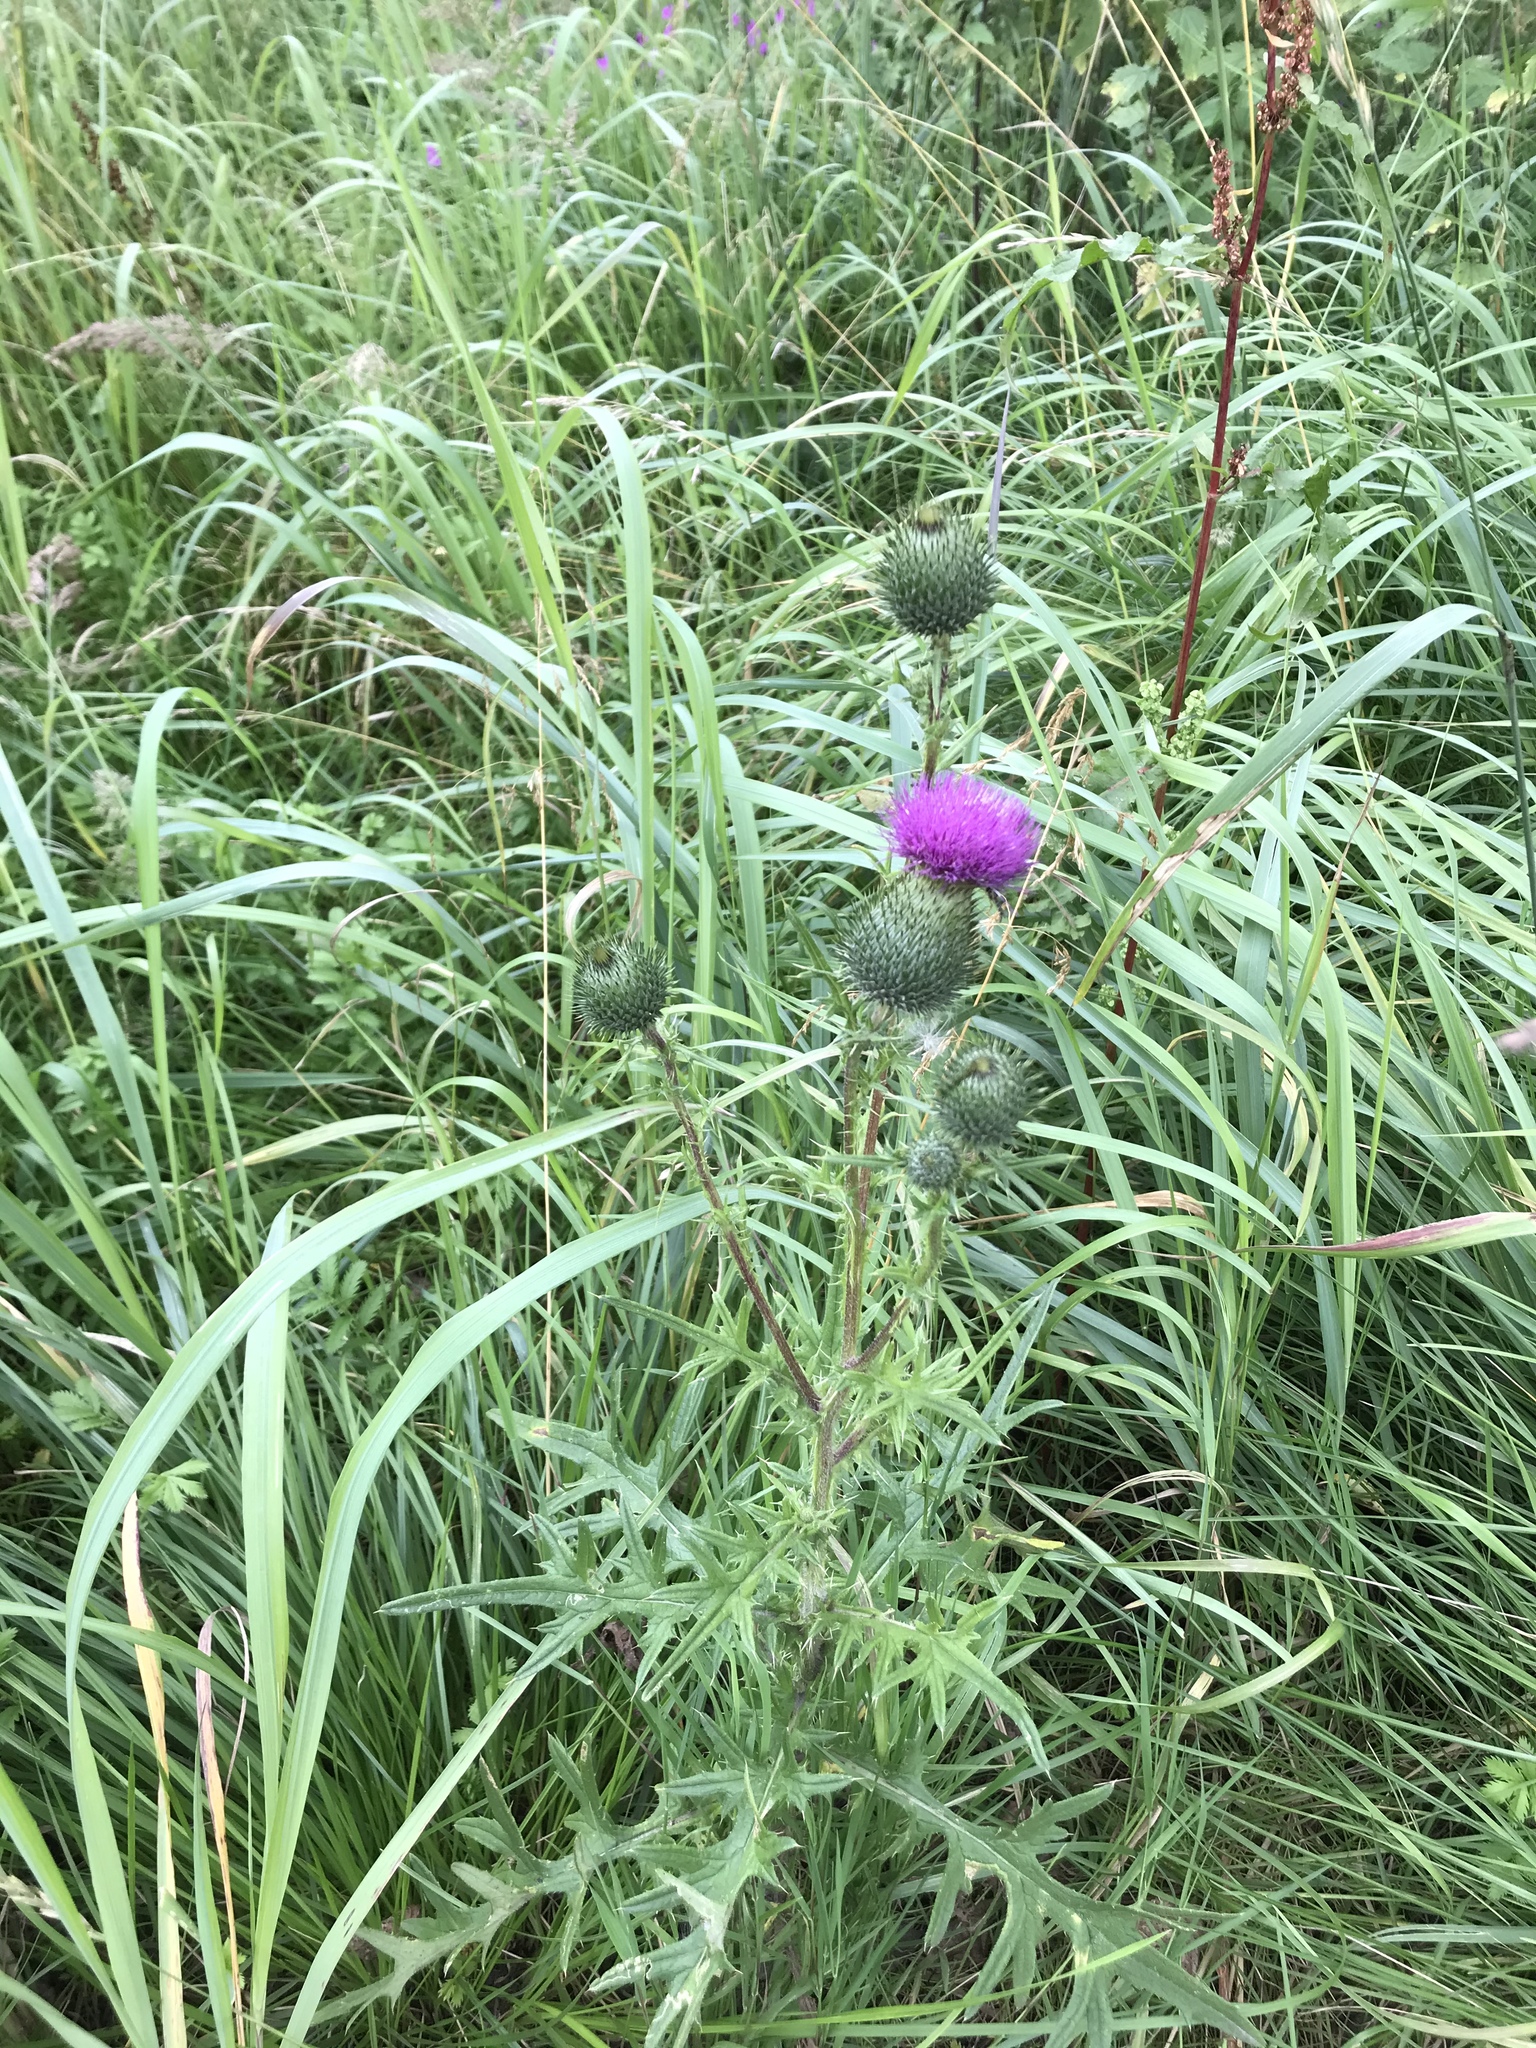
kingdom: Plantae
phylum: Tracheophyta
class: Magnoliopsida
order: Asterales
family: Asteraceae
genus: Cirsium
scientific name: Cirsium vulgare
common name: Bull thistle
